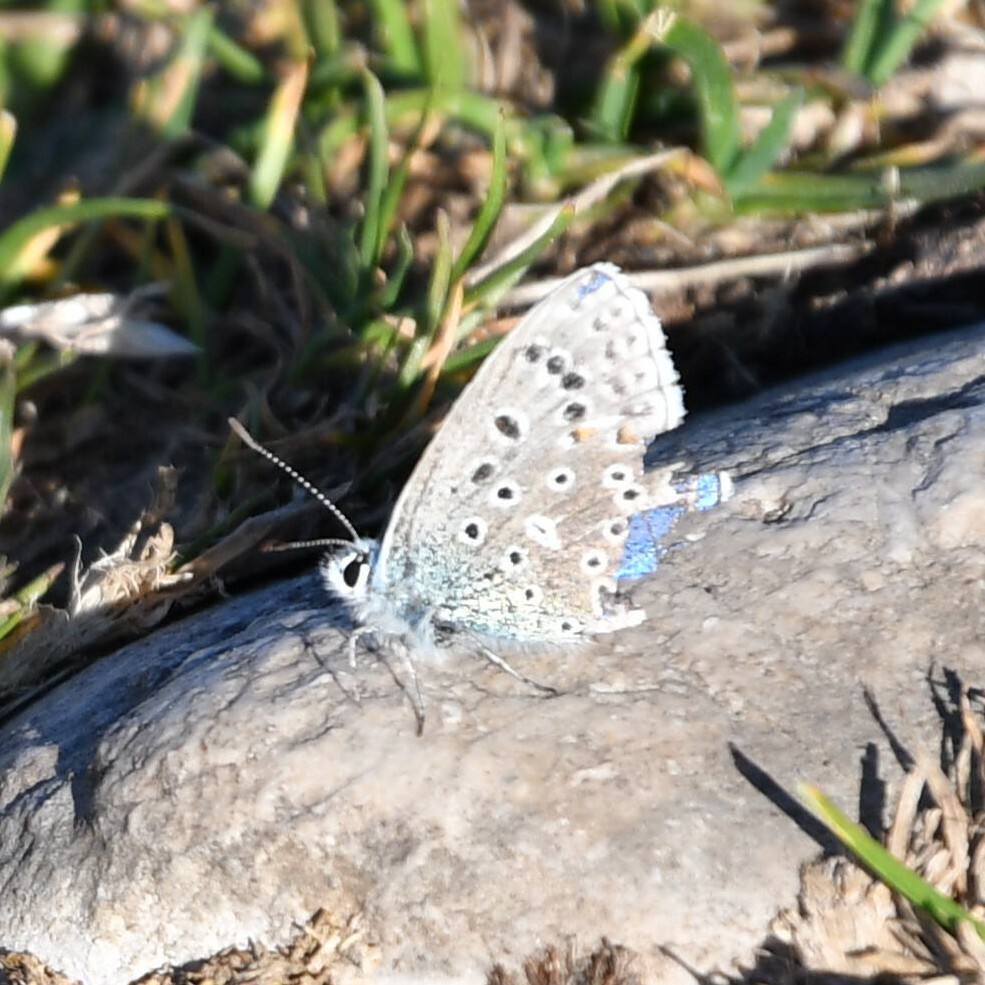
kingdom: Animalia
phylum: Arthropoda
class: Insecta
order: Lepidoptera
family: Lycaenidae
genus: Lysandra
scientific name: Lysandra bellargus
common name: Adonis blue
